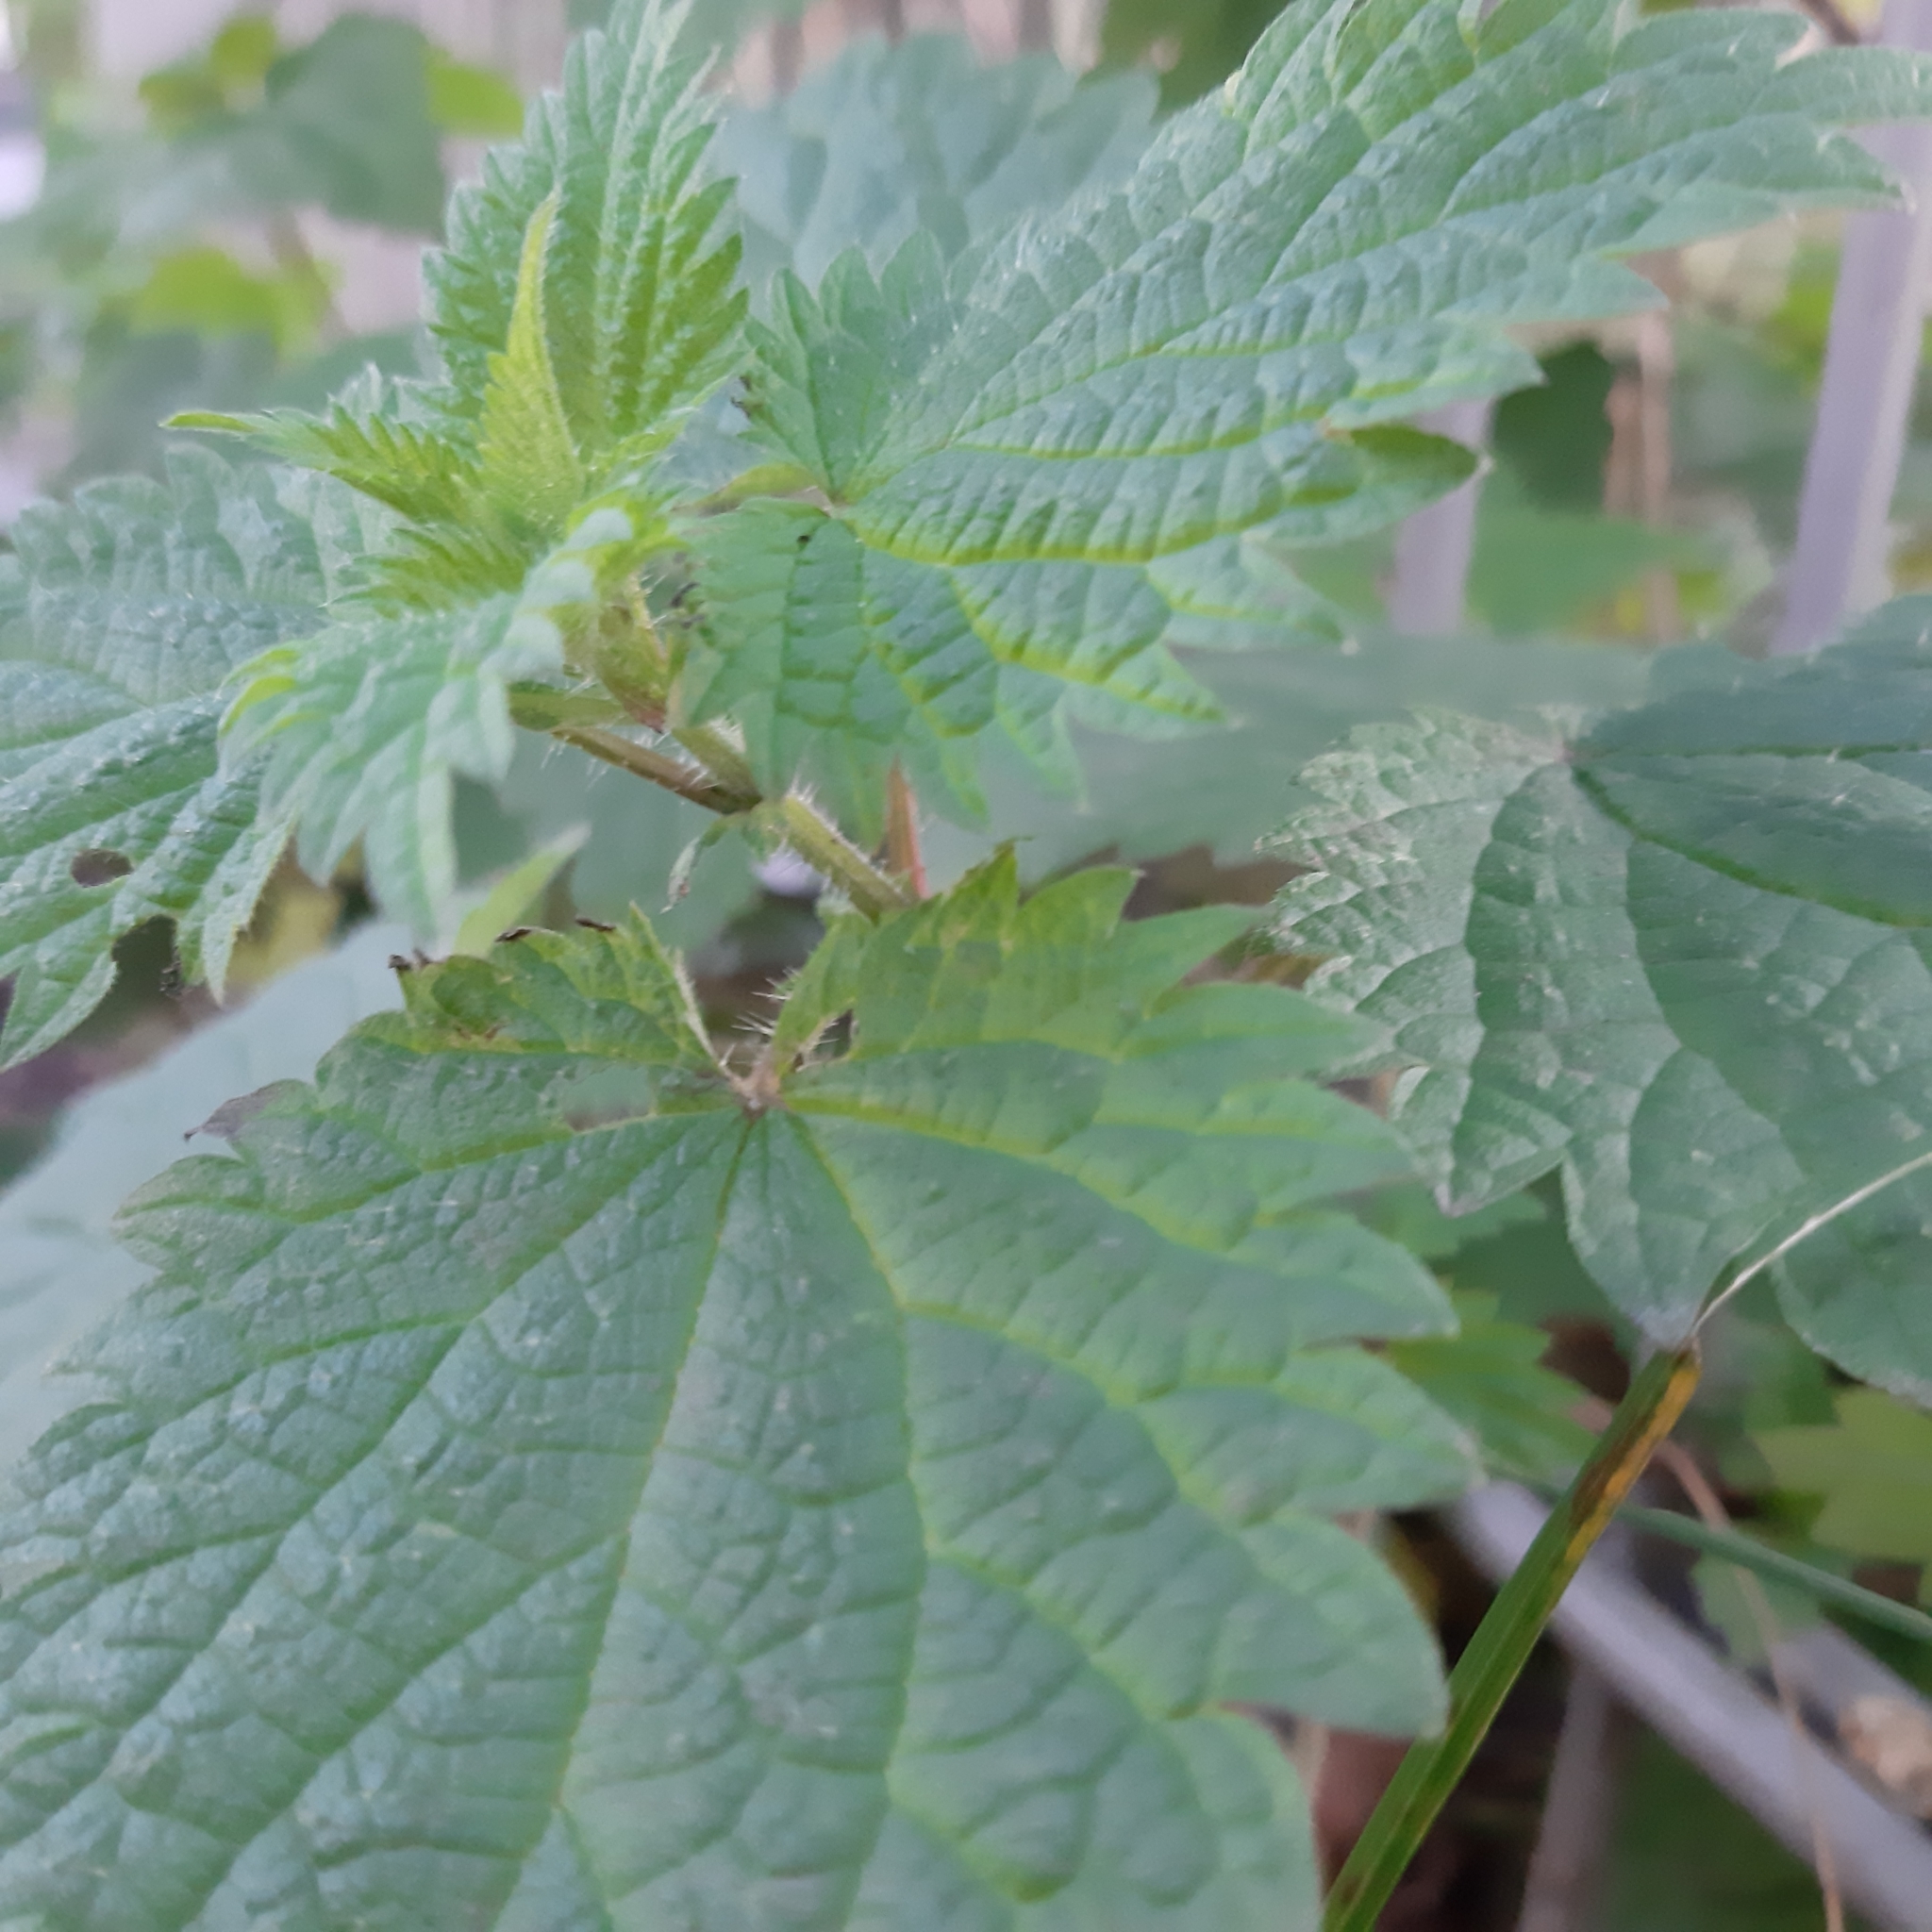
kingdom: Plantae
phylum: Tracheophyta
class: Magnoliopsida
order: Rosales
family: Urticaceae
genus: Urtica
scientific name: Urtica dioica
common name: Common nettle
